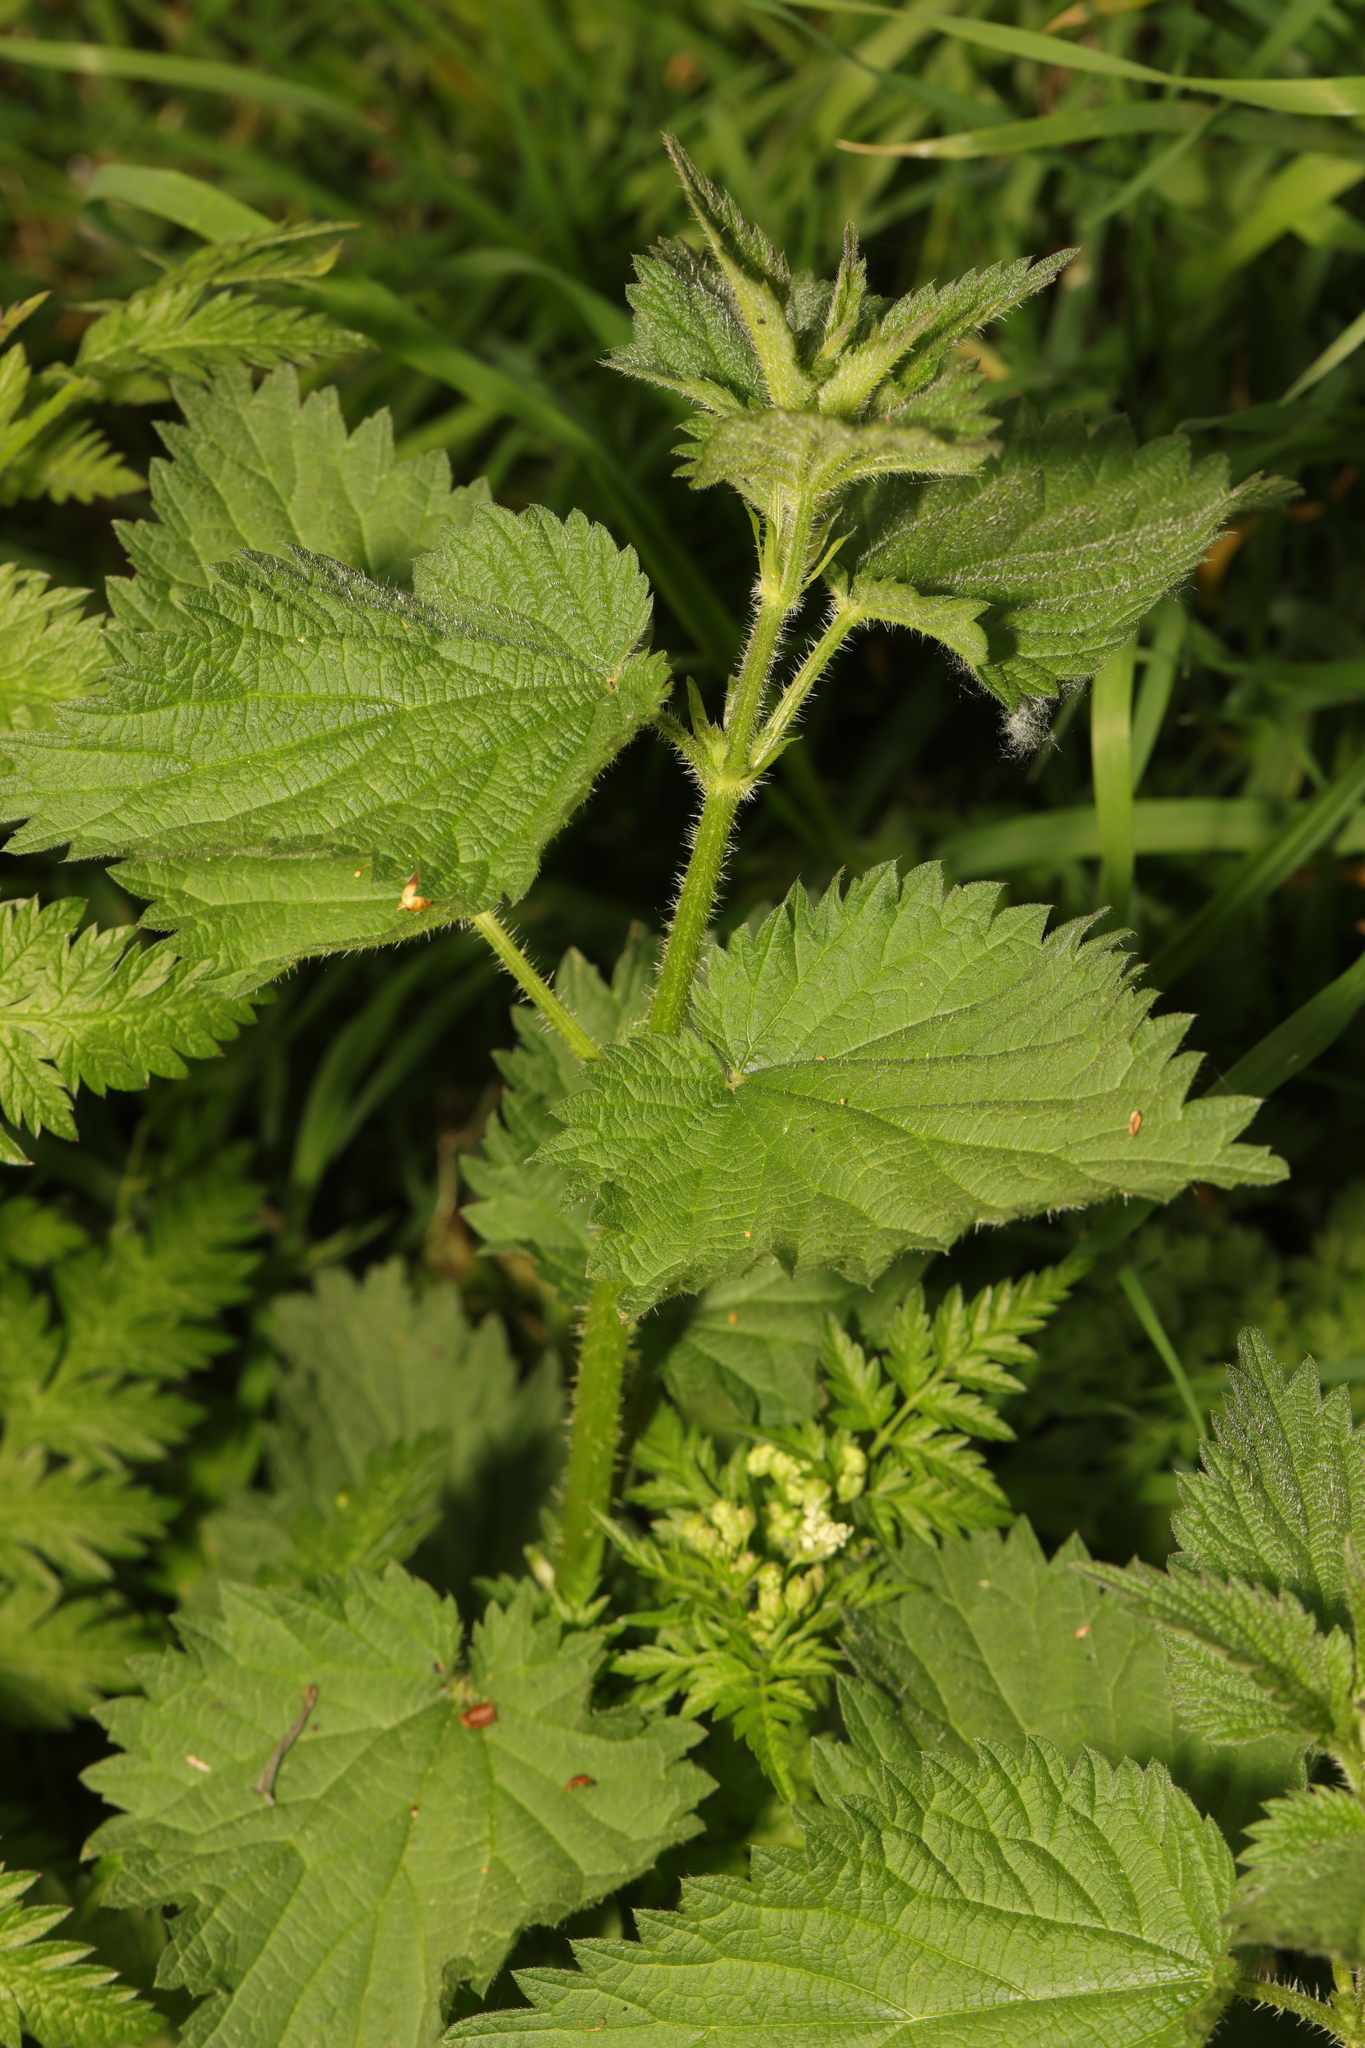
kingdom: Plantae
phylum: Tracheophyta
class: Magnoliopsida
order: Rosales
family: Urticaceae
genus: Urtica
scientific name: Urtica dioica
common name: Common nettle
